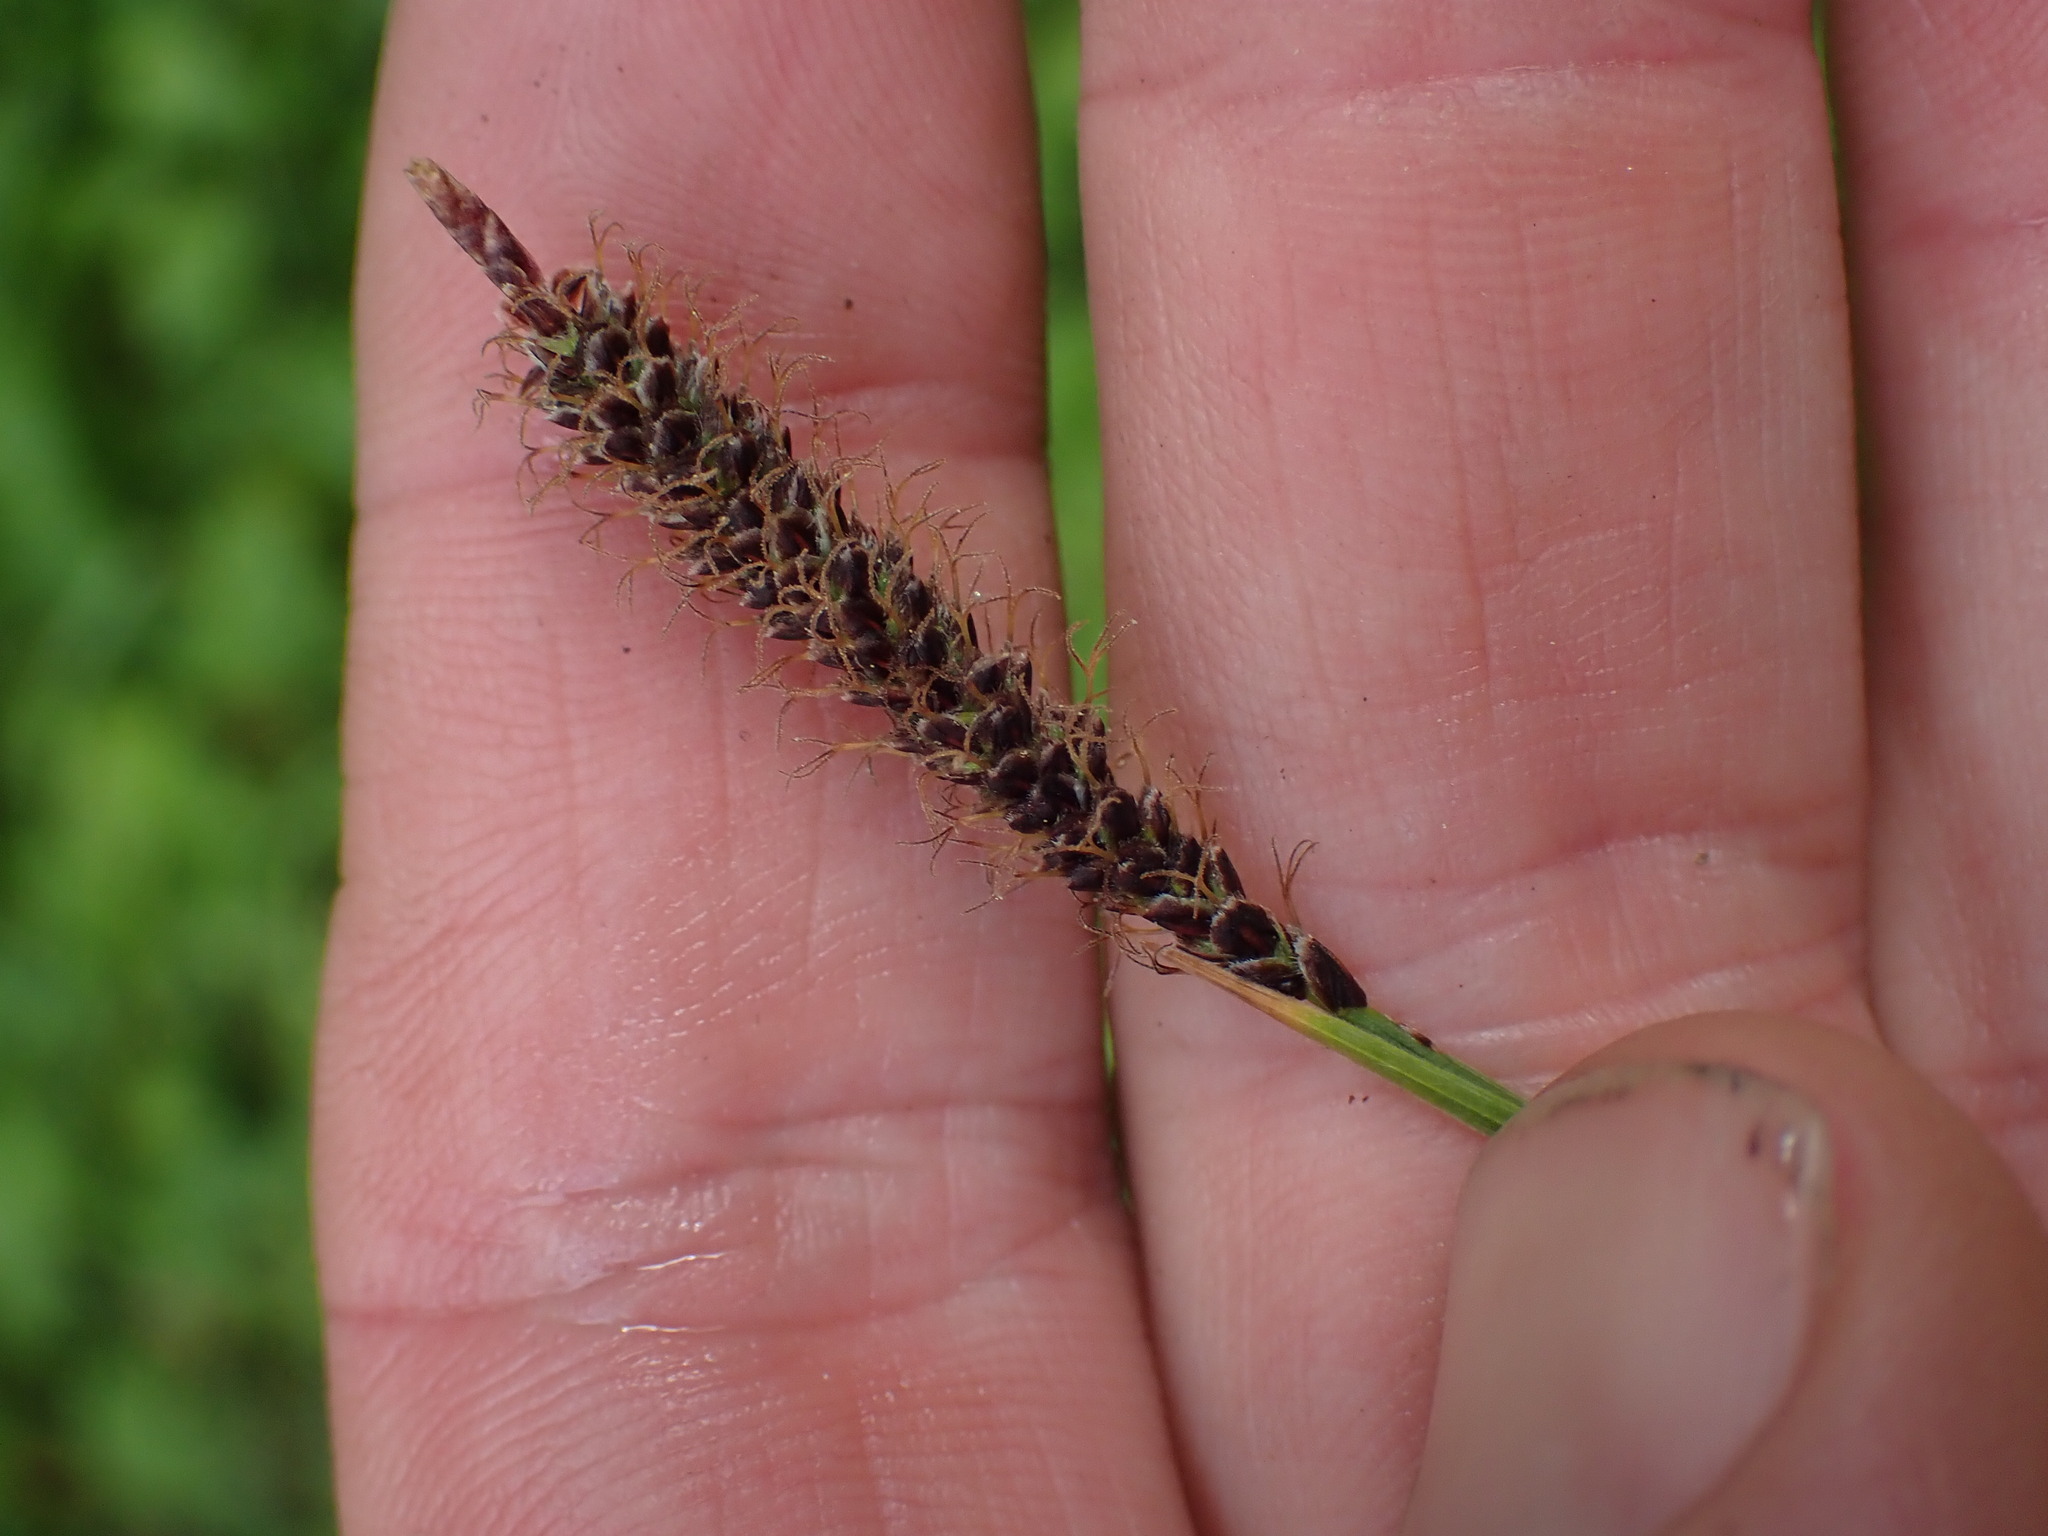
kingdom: Plantae
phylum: Tracheophyta
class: Liliopsida
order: Poales
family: Cyperaceae
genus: Carex
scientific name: Carex scirpoidea
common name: Canada single-spike sedge
